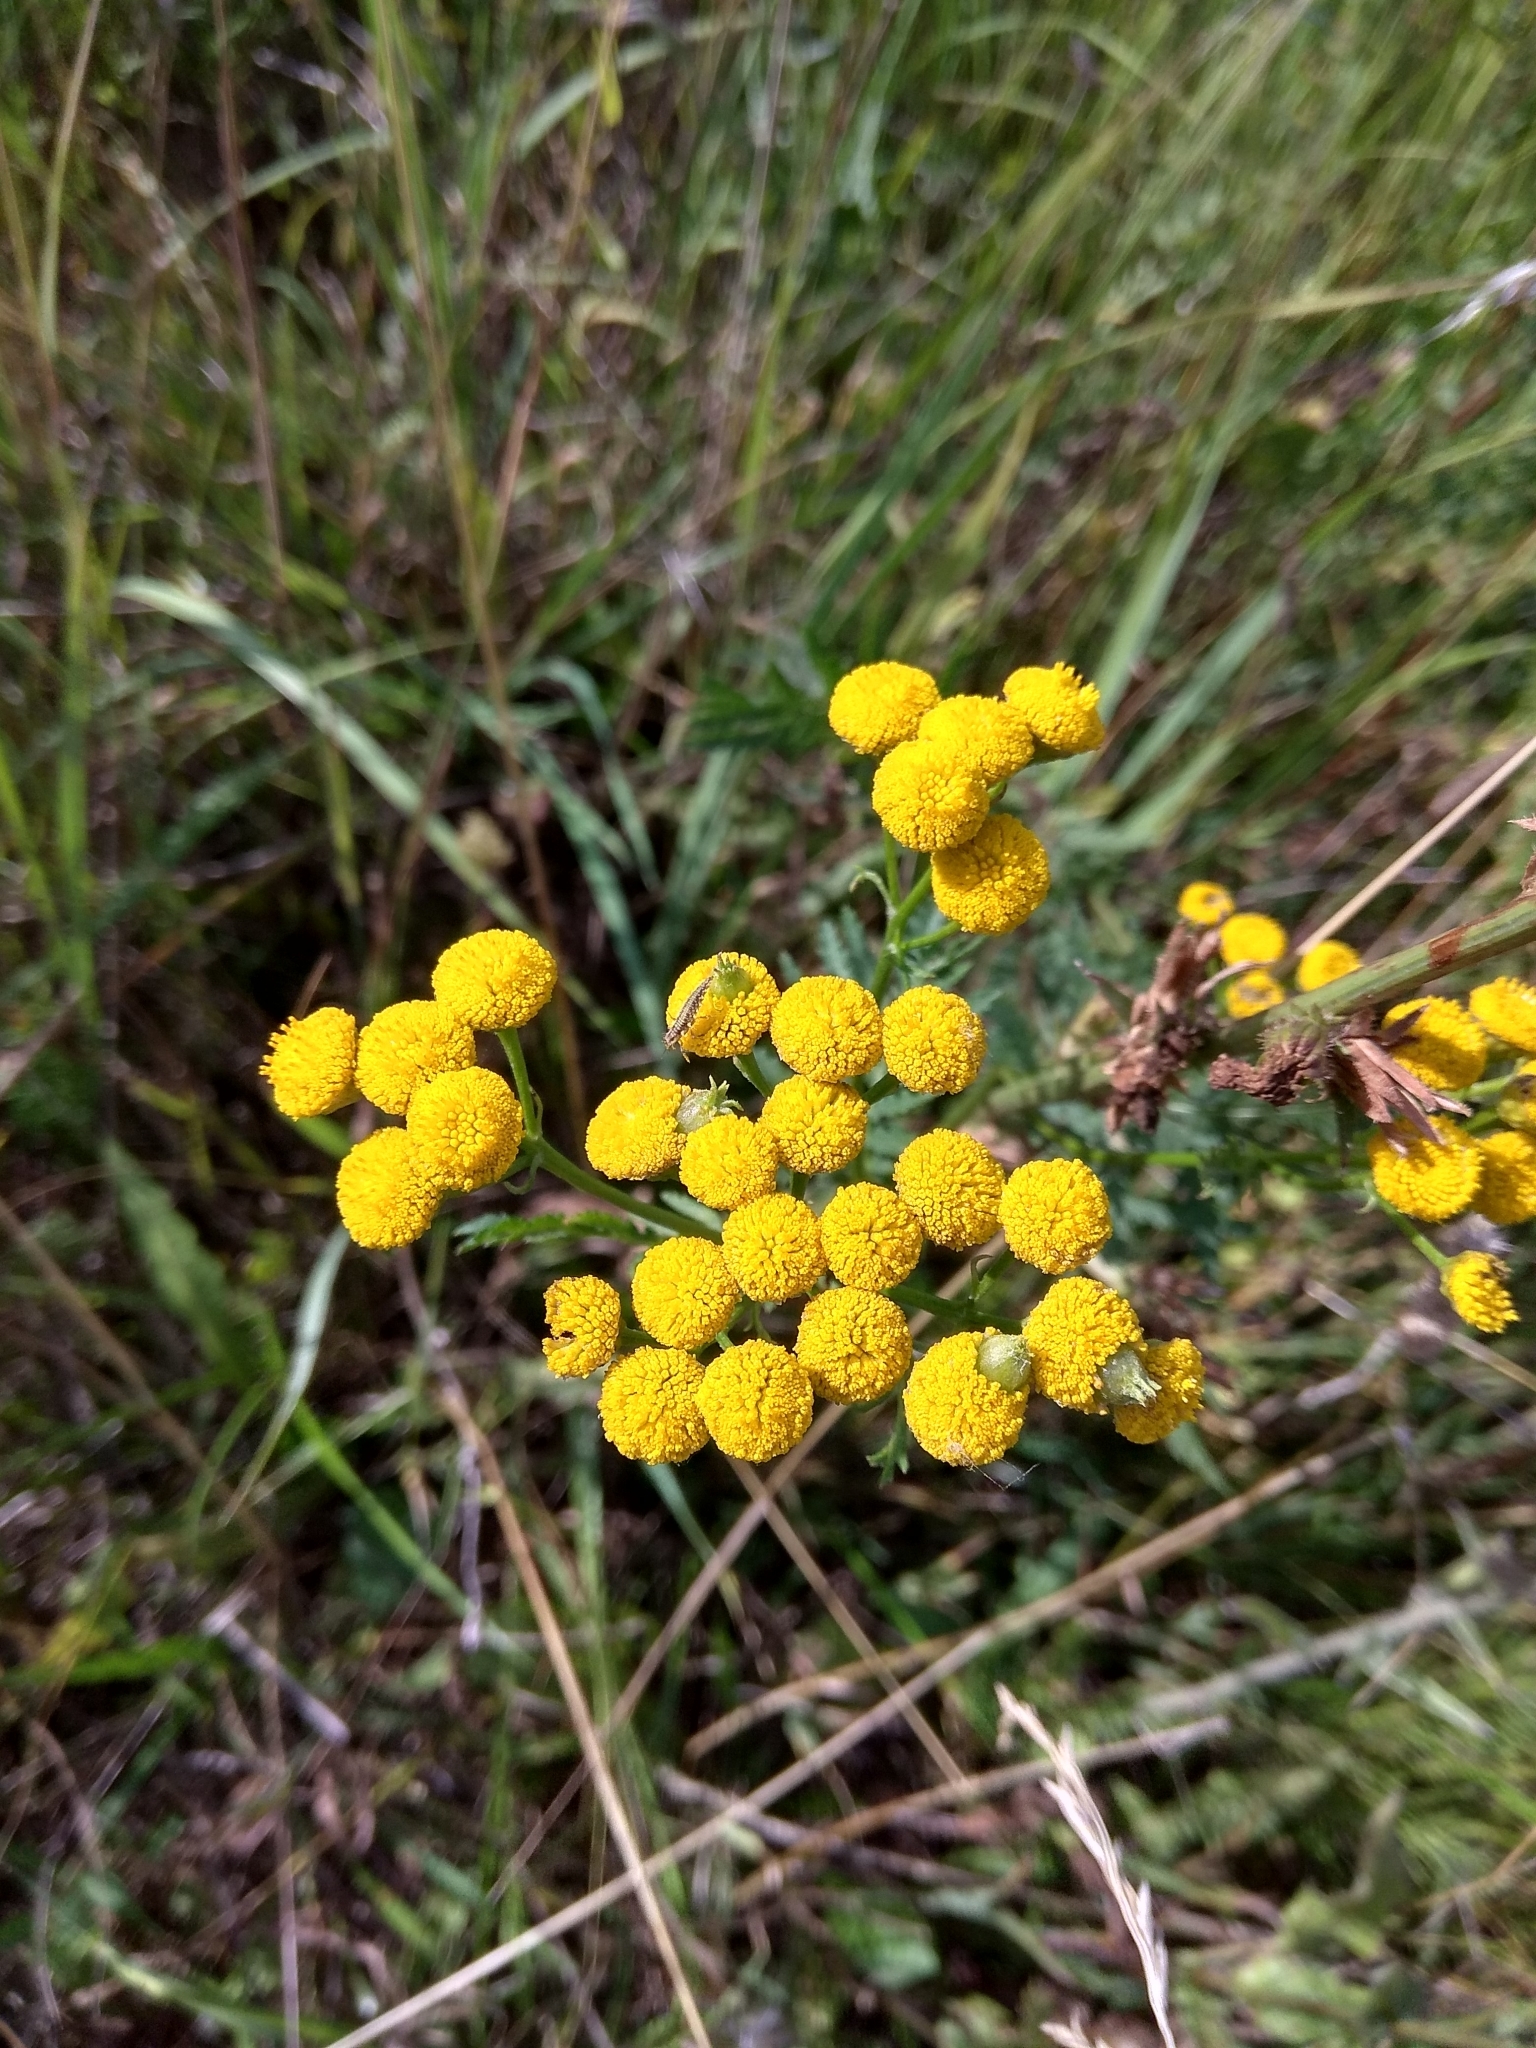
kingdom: Plantae
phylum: Tracheophyta
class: Magnoliopsida
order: Asterales
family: Asteraceae
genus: Tanacetum
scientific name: Tanacetum vulgare
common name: Common tansy
